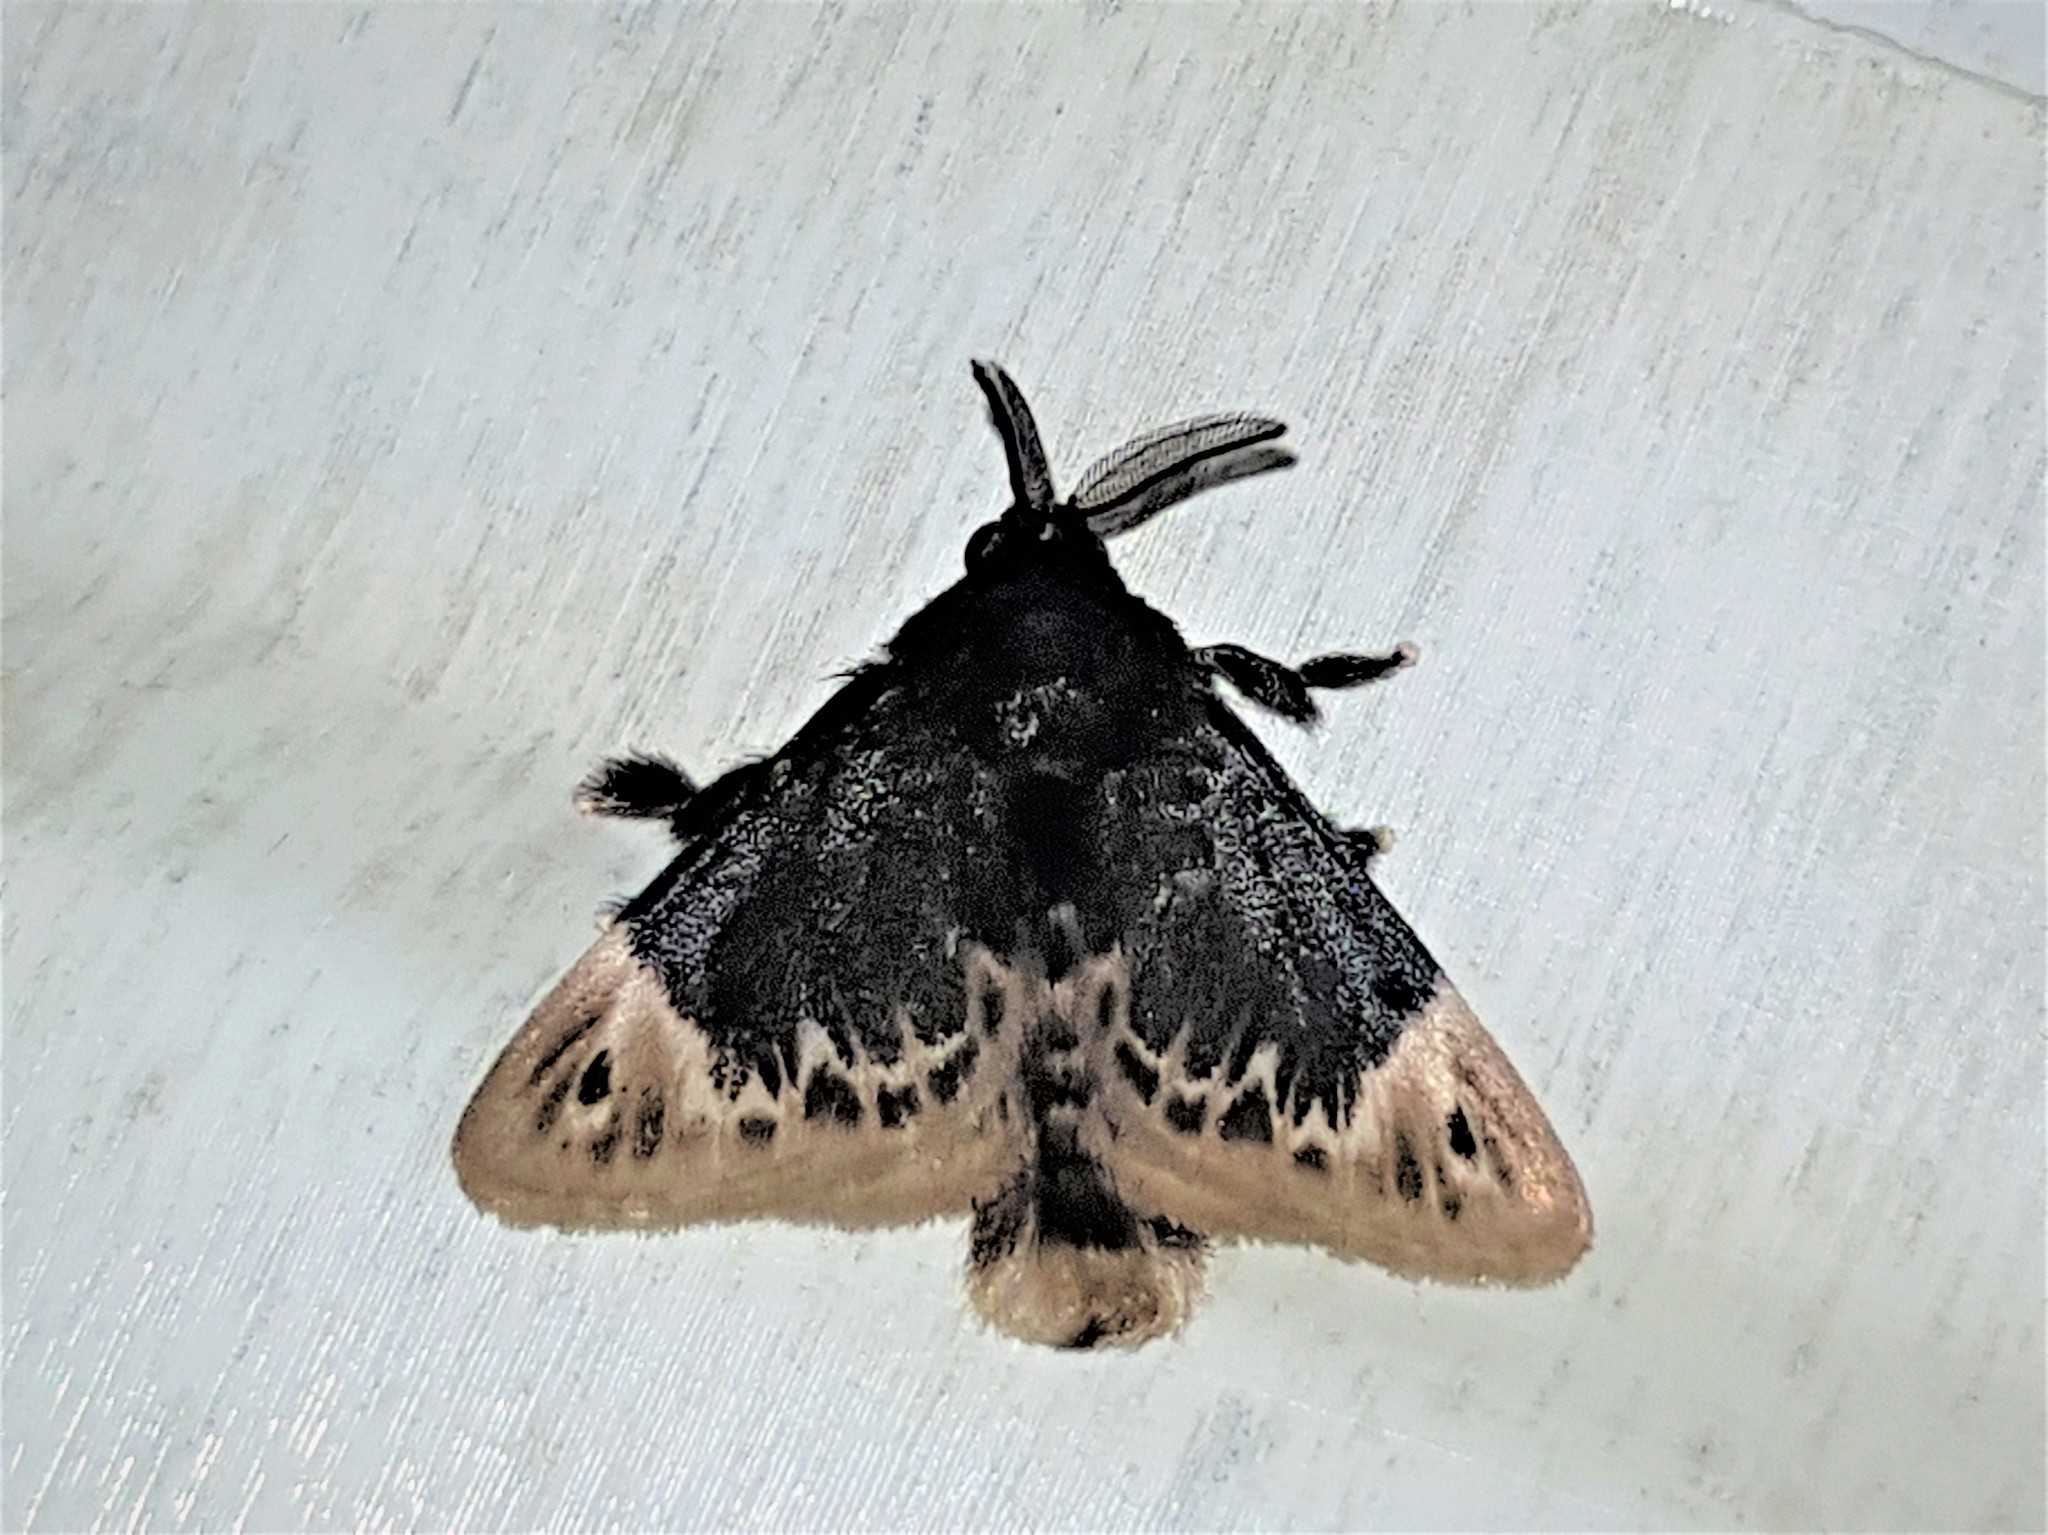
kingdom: Animalia
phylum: Arthropoda
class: Insecta
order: Lepidoptera
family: Megalopygidae
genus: Podalia
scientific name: Podalia amarga
